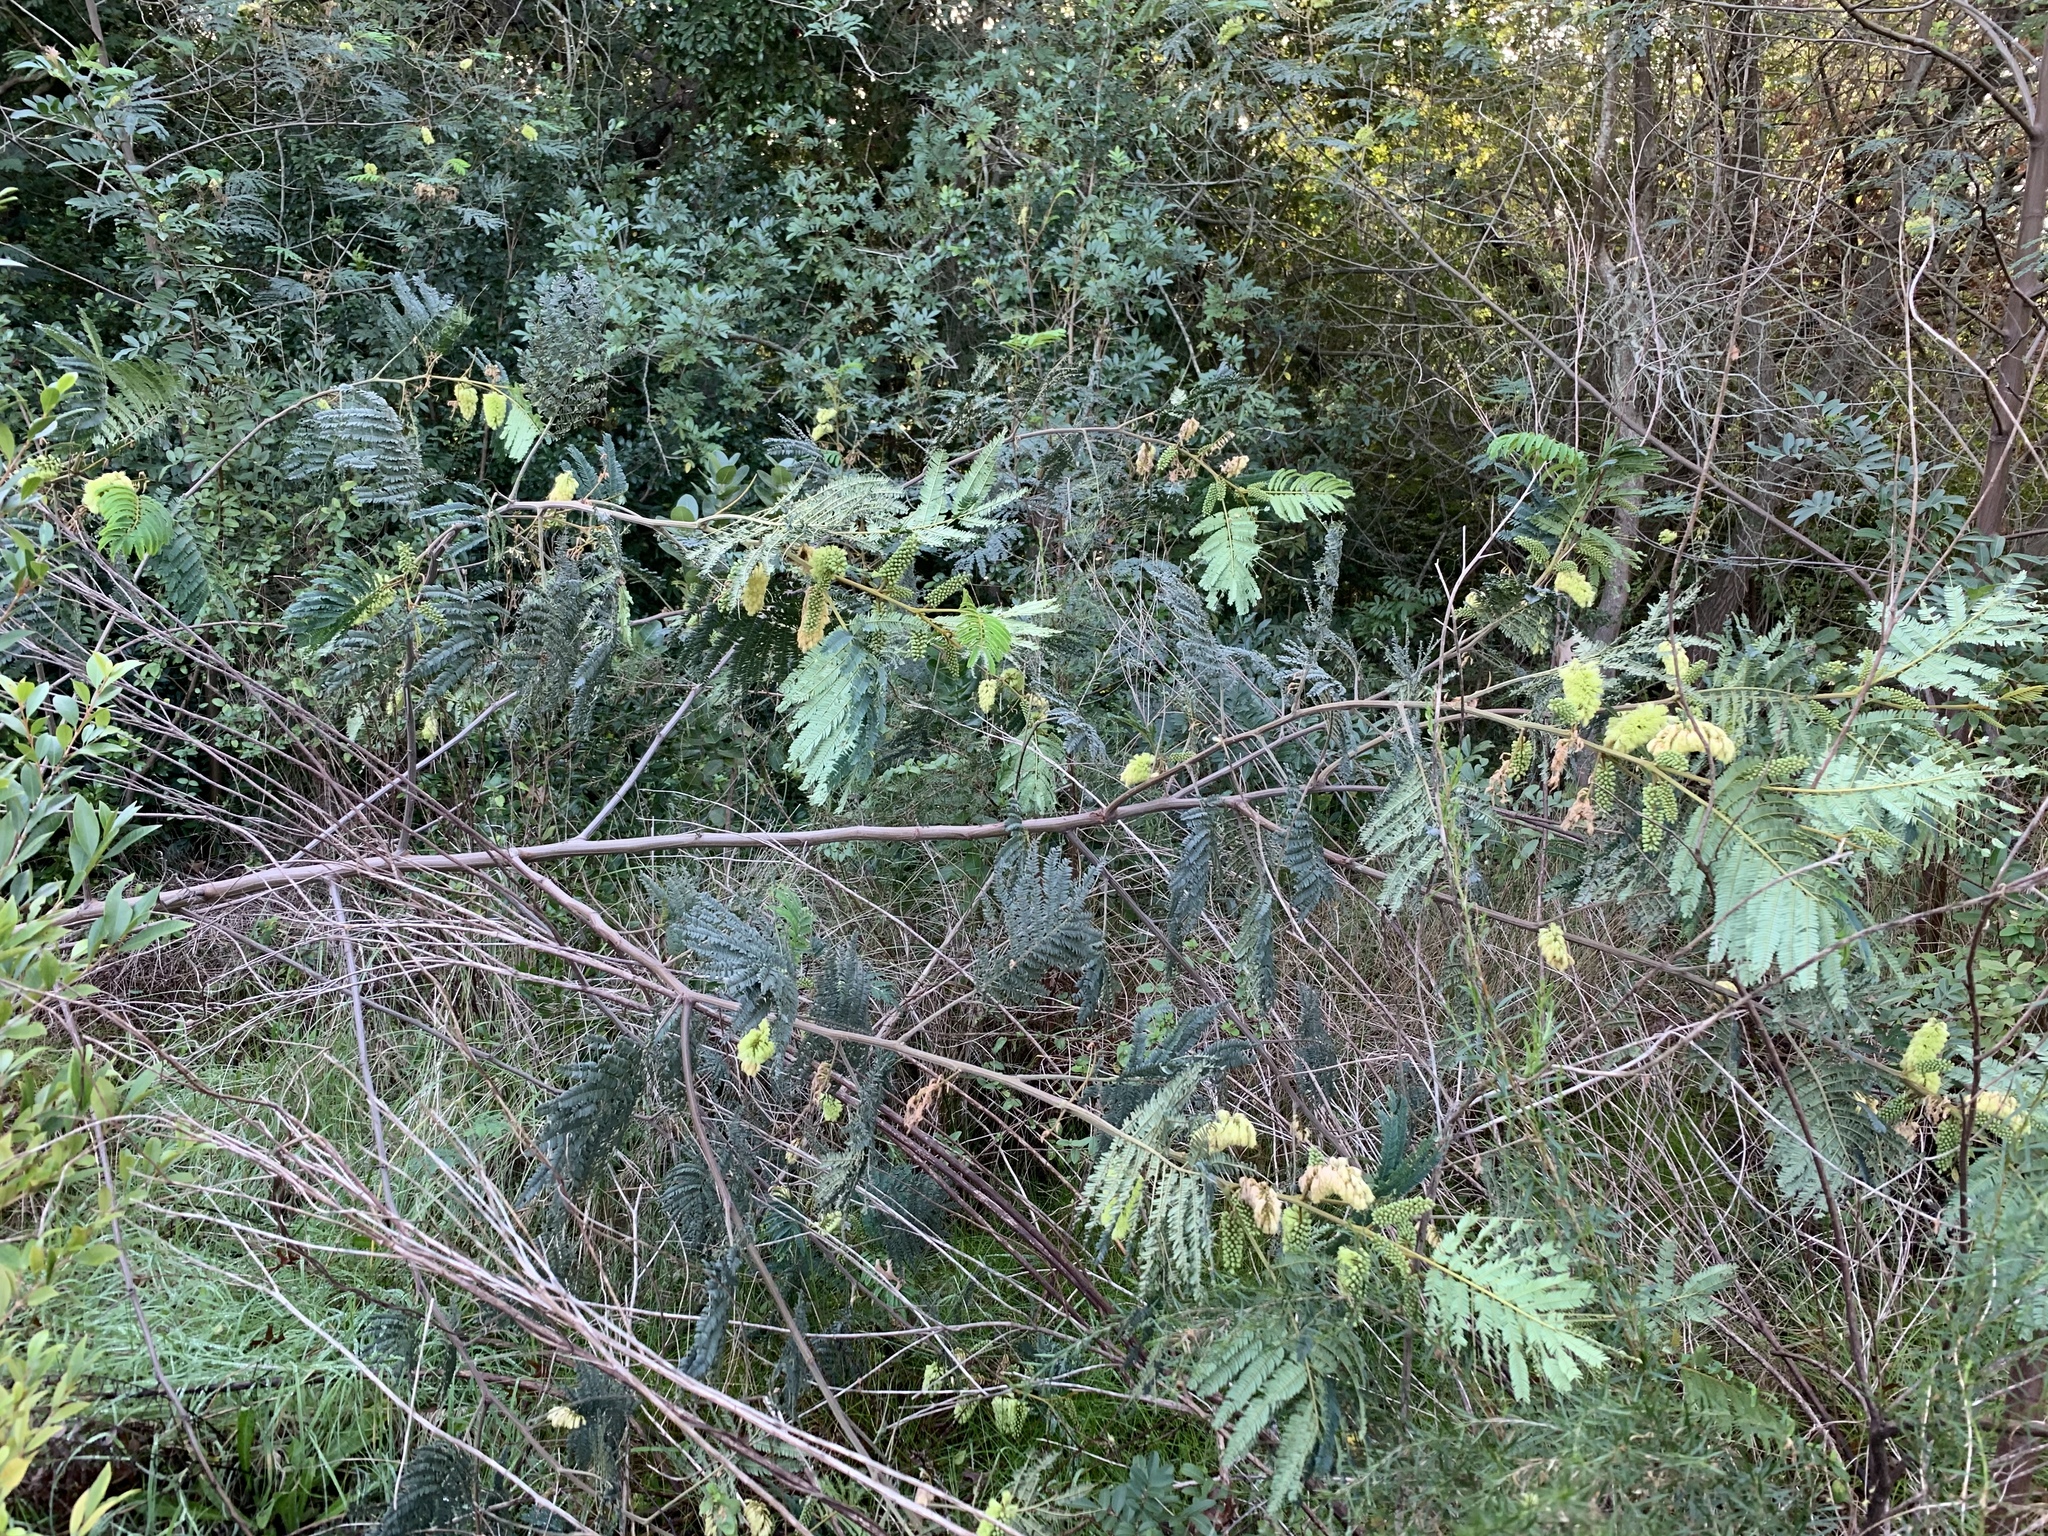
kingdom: Plantae
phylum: Tracheophyta
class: Magnoliopsida
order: Fabales
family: Fabaceae
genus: Paraserianthes
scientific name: Paraserianthes lophantha
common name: Plume albizia
